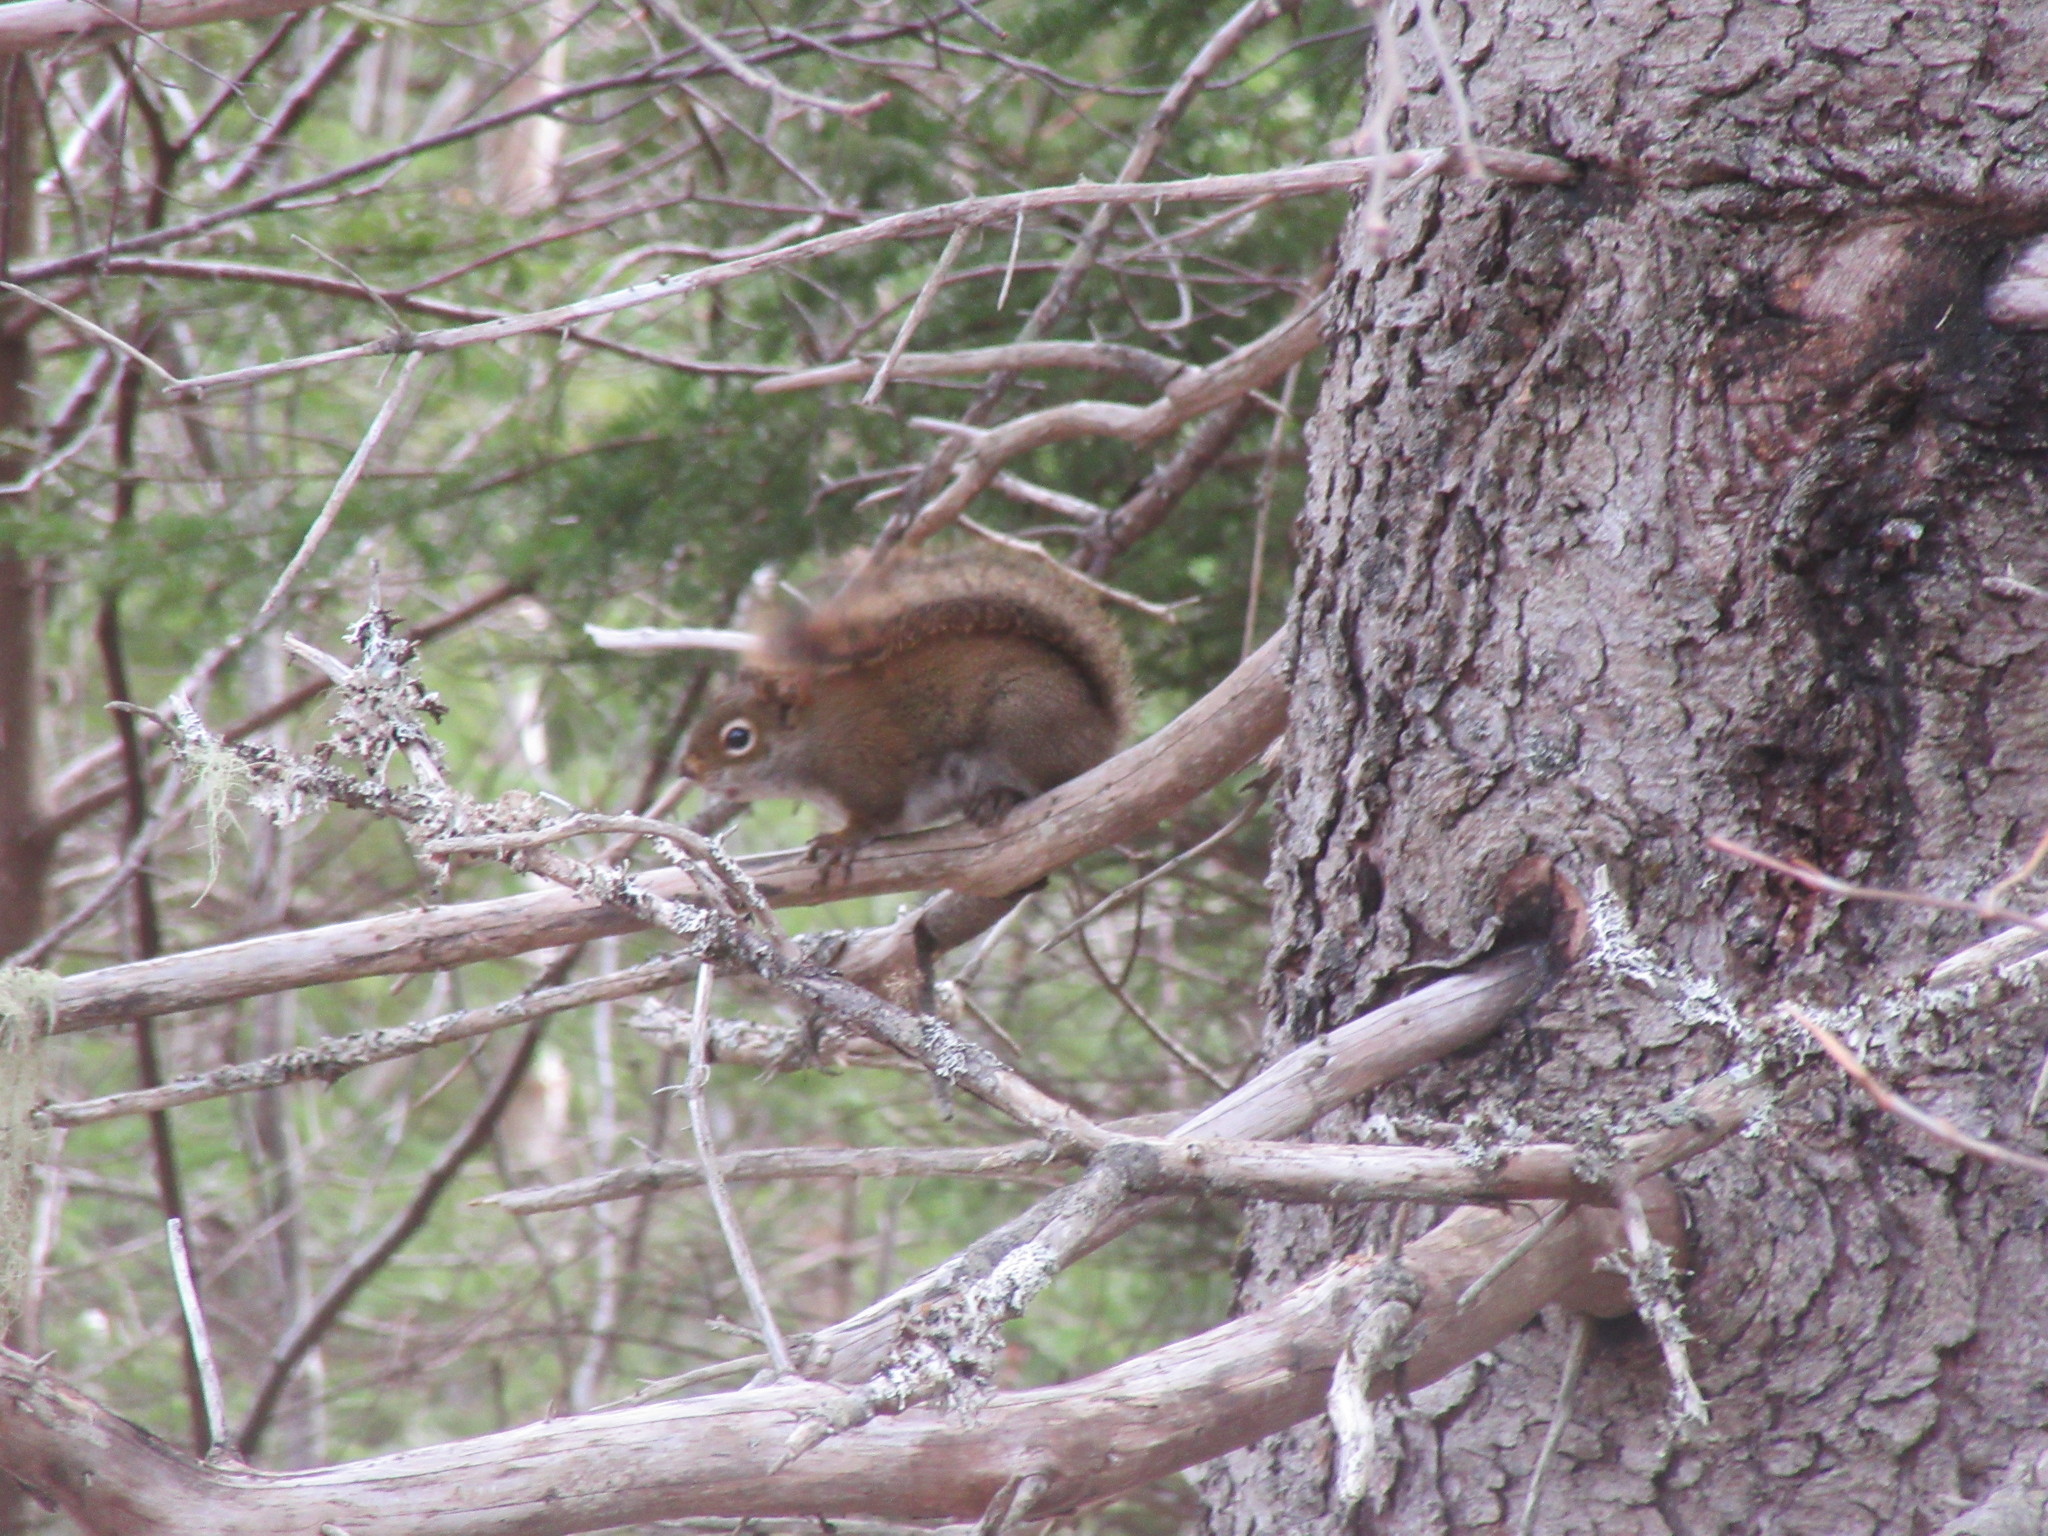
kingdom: Animalia
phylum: Chordata
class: Mammalia
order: Rodentia
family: Sciuridae
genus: Tamiasciurus
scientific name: Tamiasciurus hudsonicus
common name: Red squirrel
